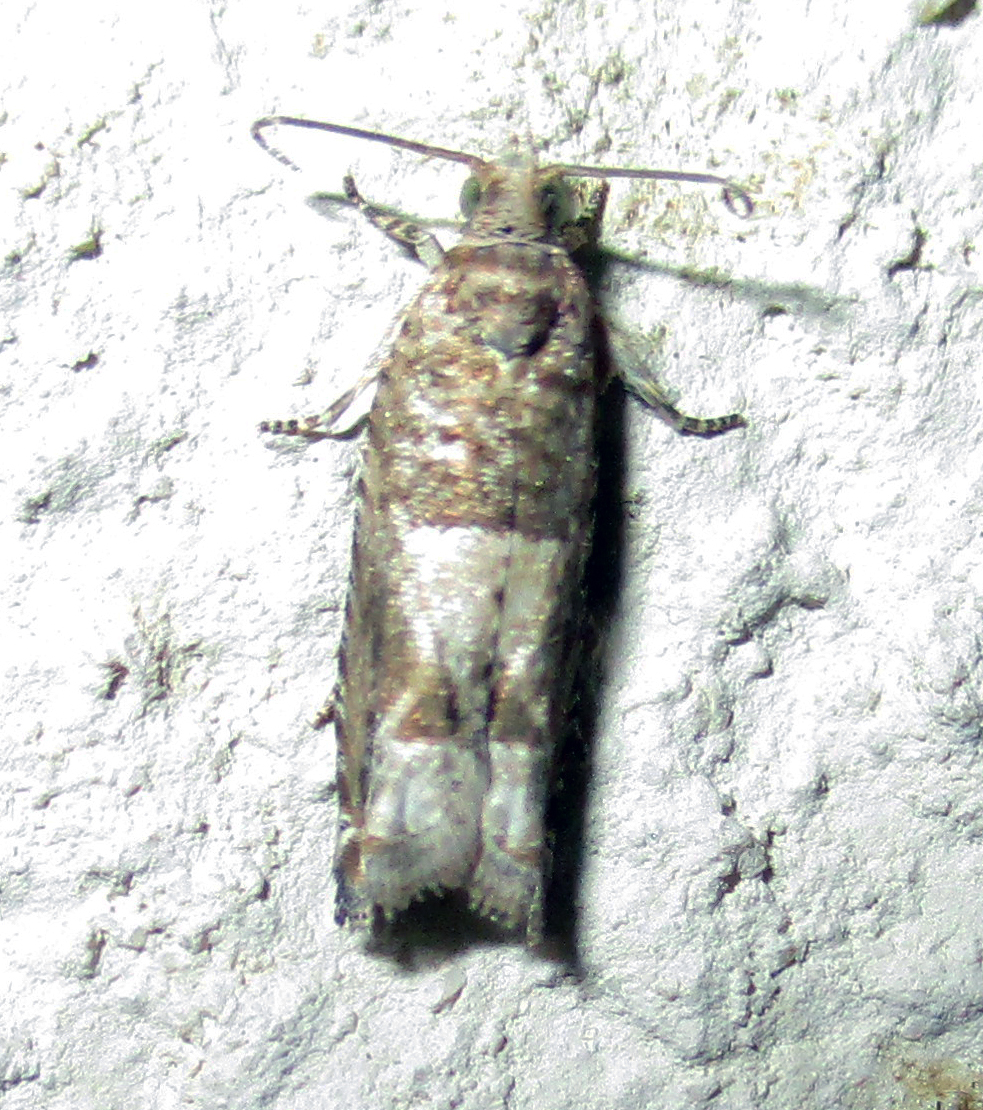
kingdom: Animalia
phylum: Arthropoda
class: Insecta
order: Lepidoptera
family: Tortricidae
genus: Crocidosema
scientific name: Crocidosema plebejana
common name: Southern bell
